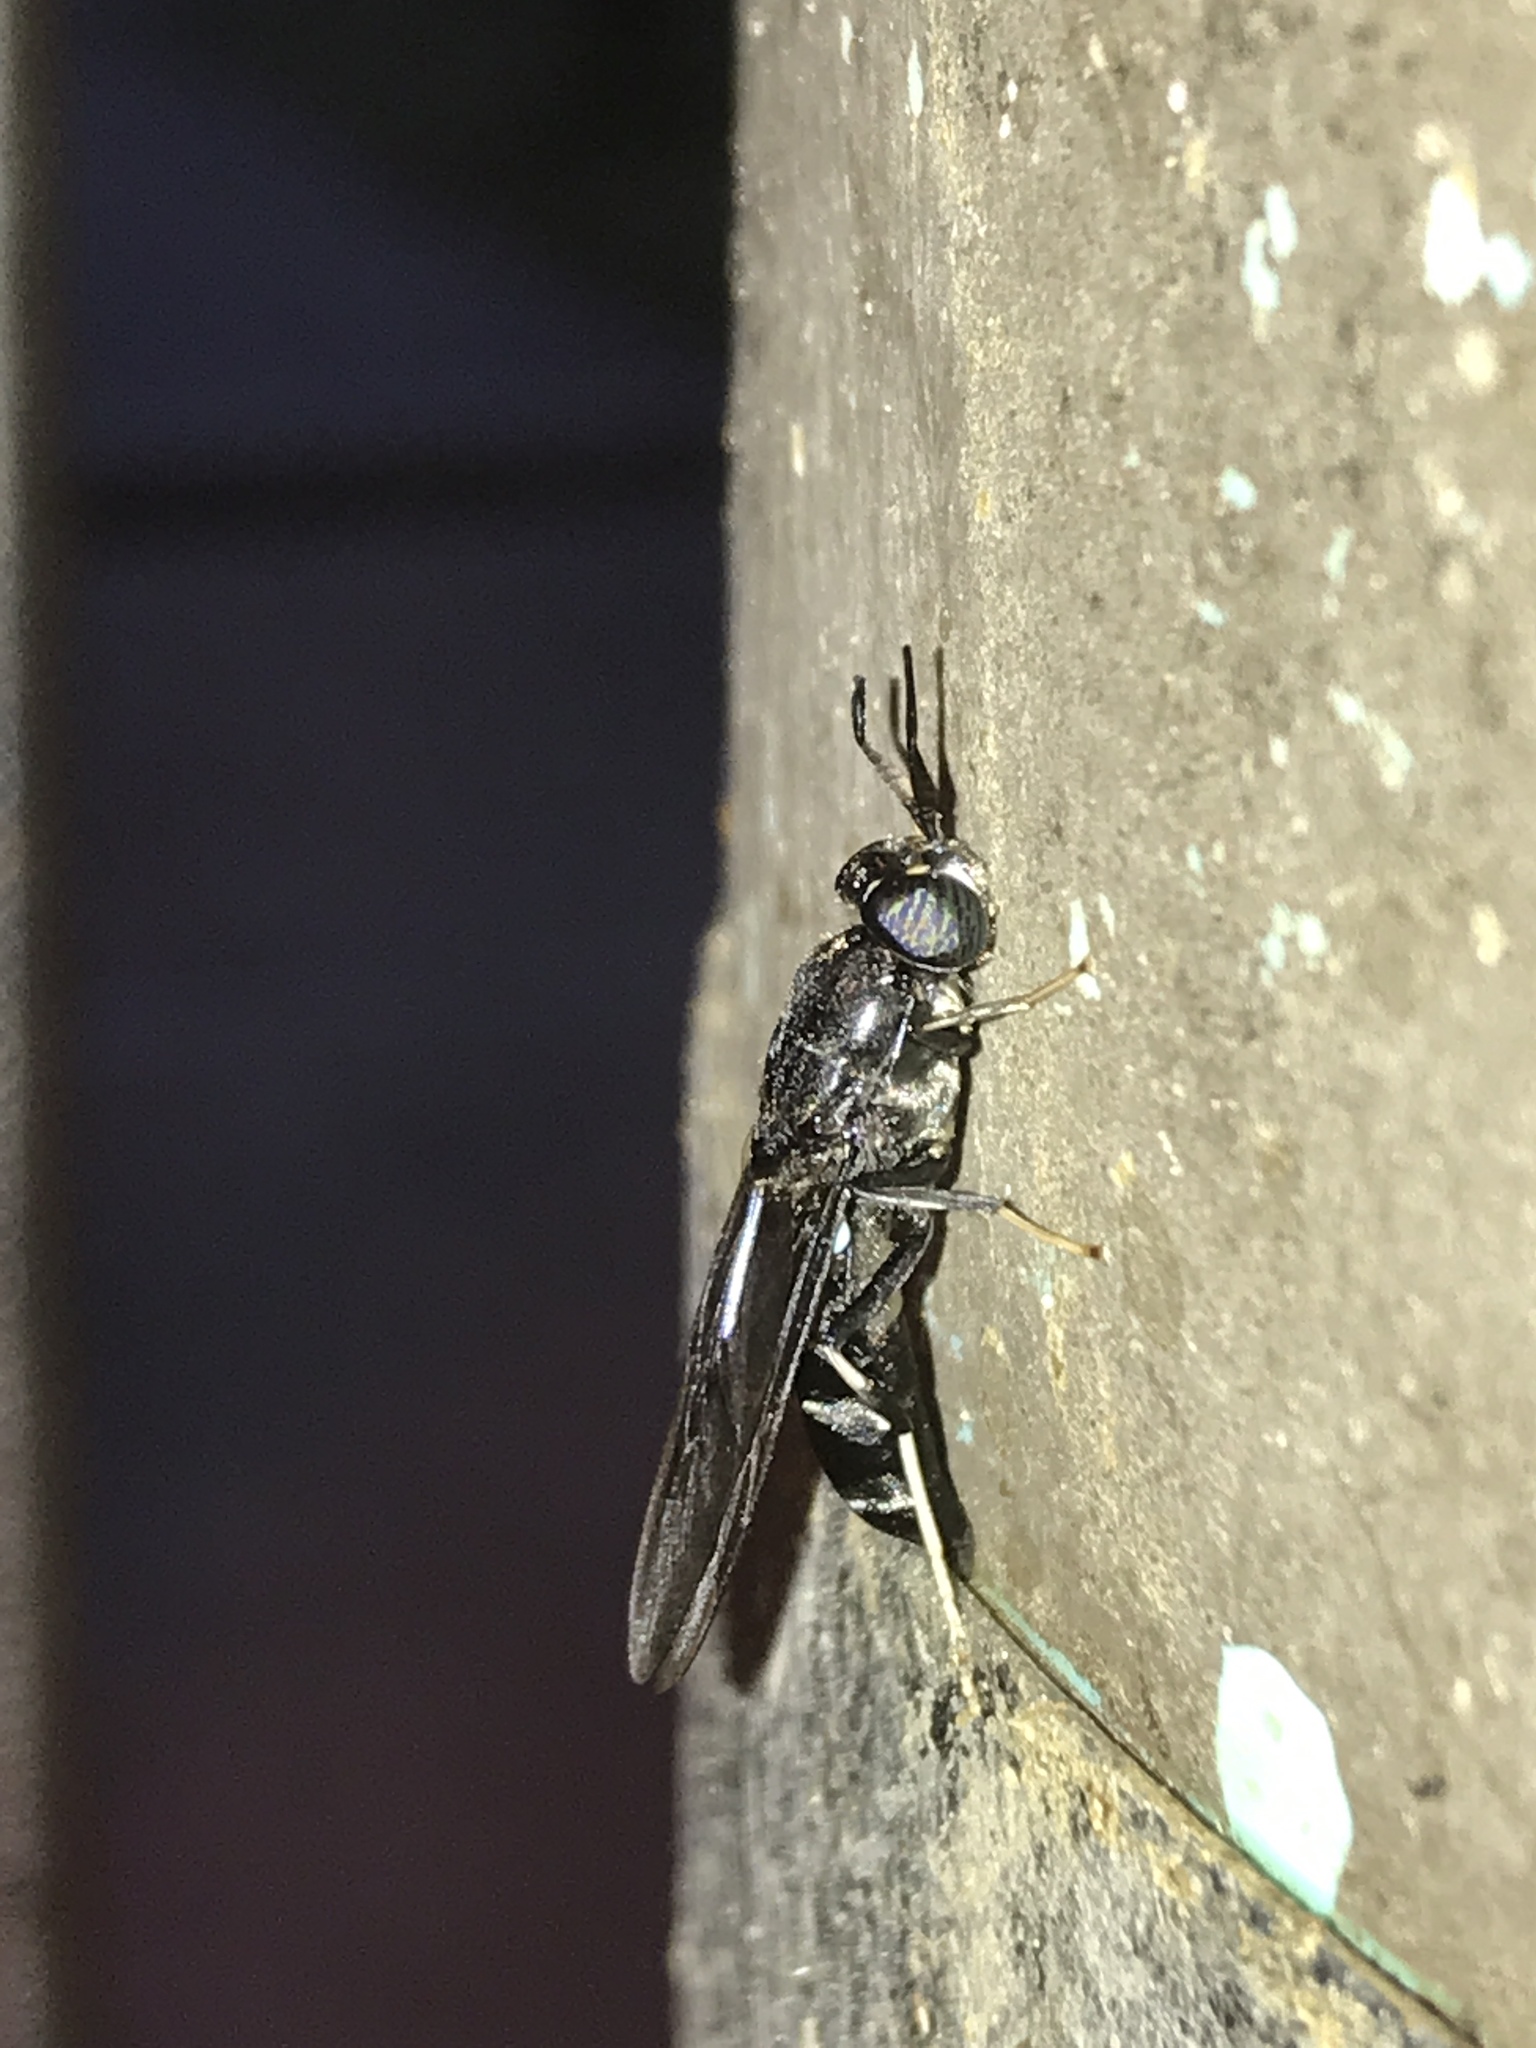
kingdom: Animalia
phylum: Arthropoda
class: Insecta
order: Diptera
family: Stratiomyidae
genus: Hermetia
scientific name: Hermetia illucens
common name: Black soldier fly
